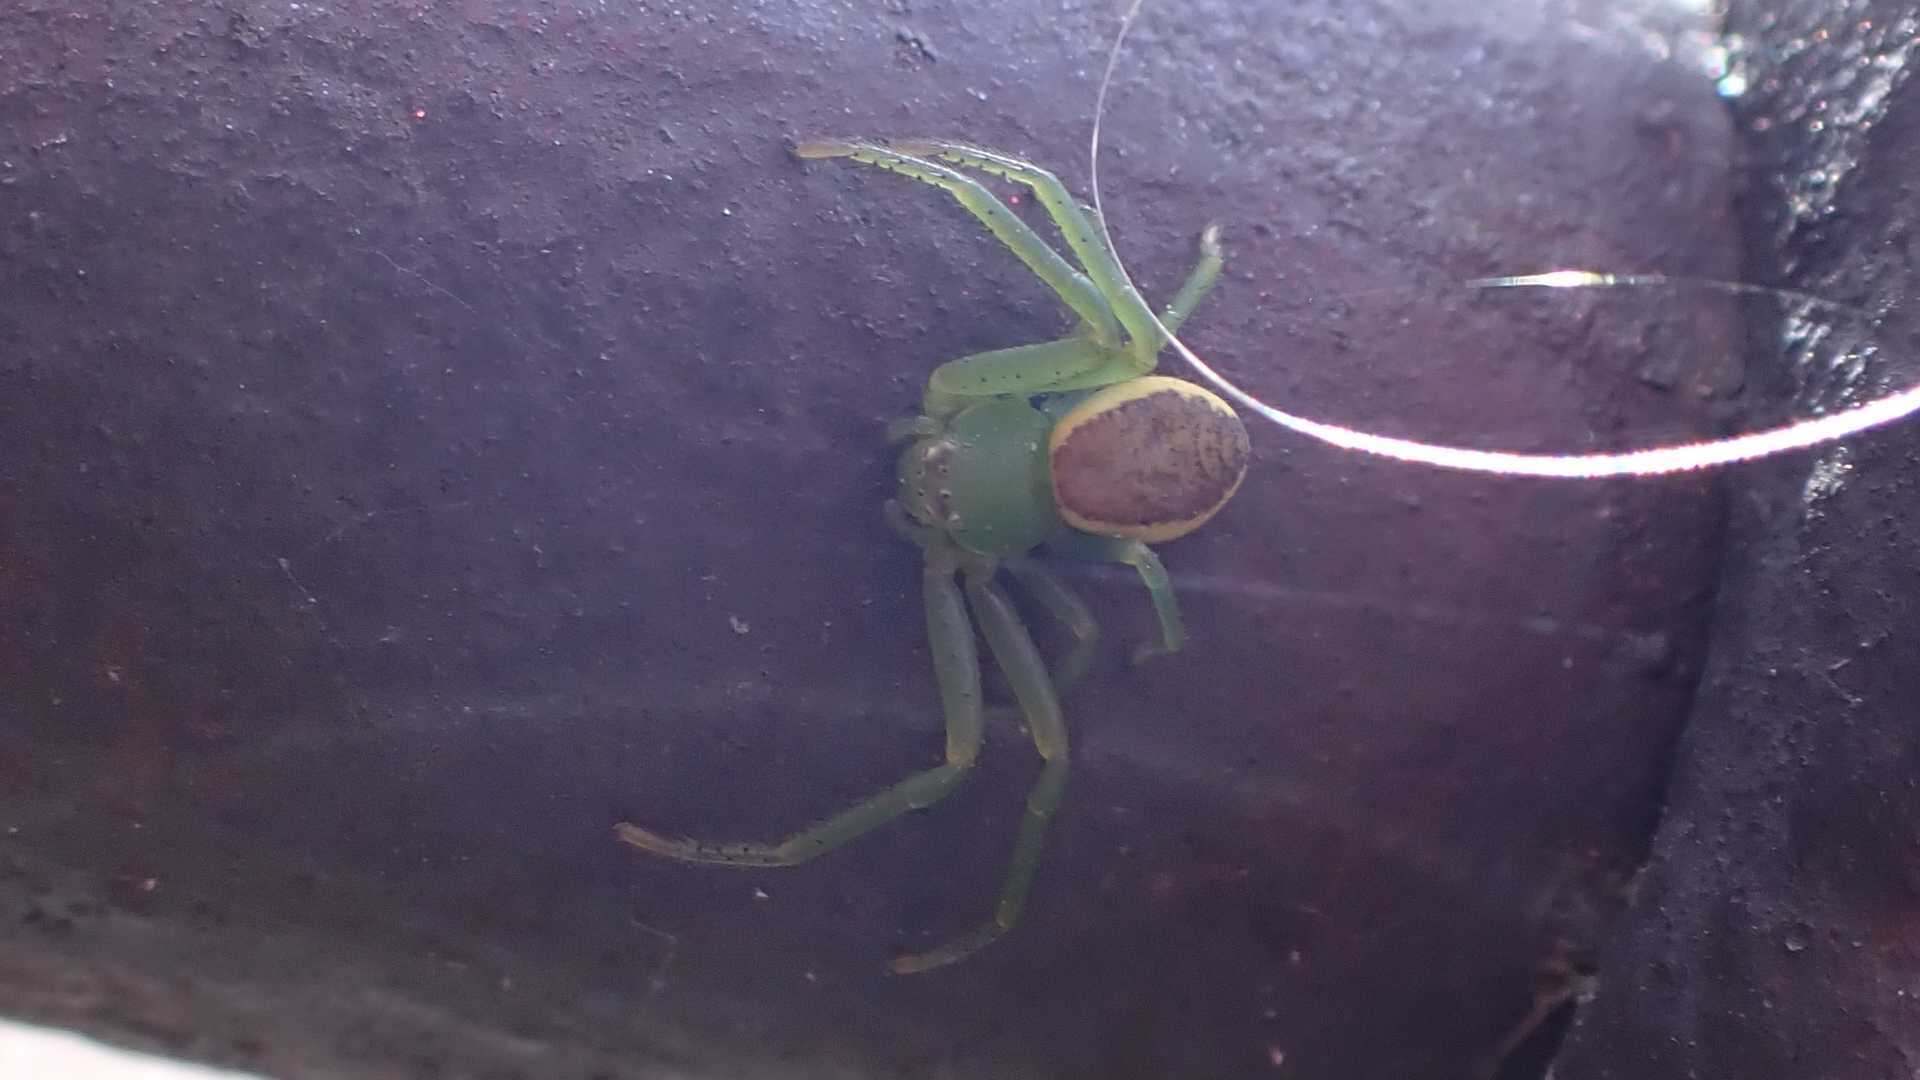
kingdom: Animalia
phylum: Arthropoda
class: Arachnida
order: Araneae
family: Thomisidae
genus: Diaea
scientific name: Diaea dorsata
